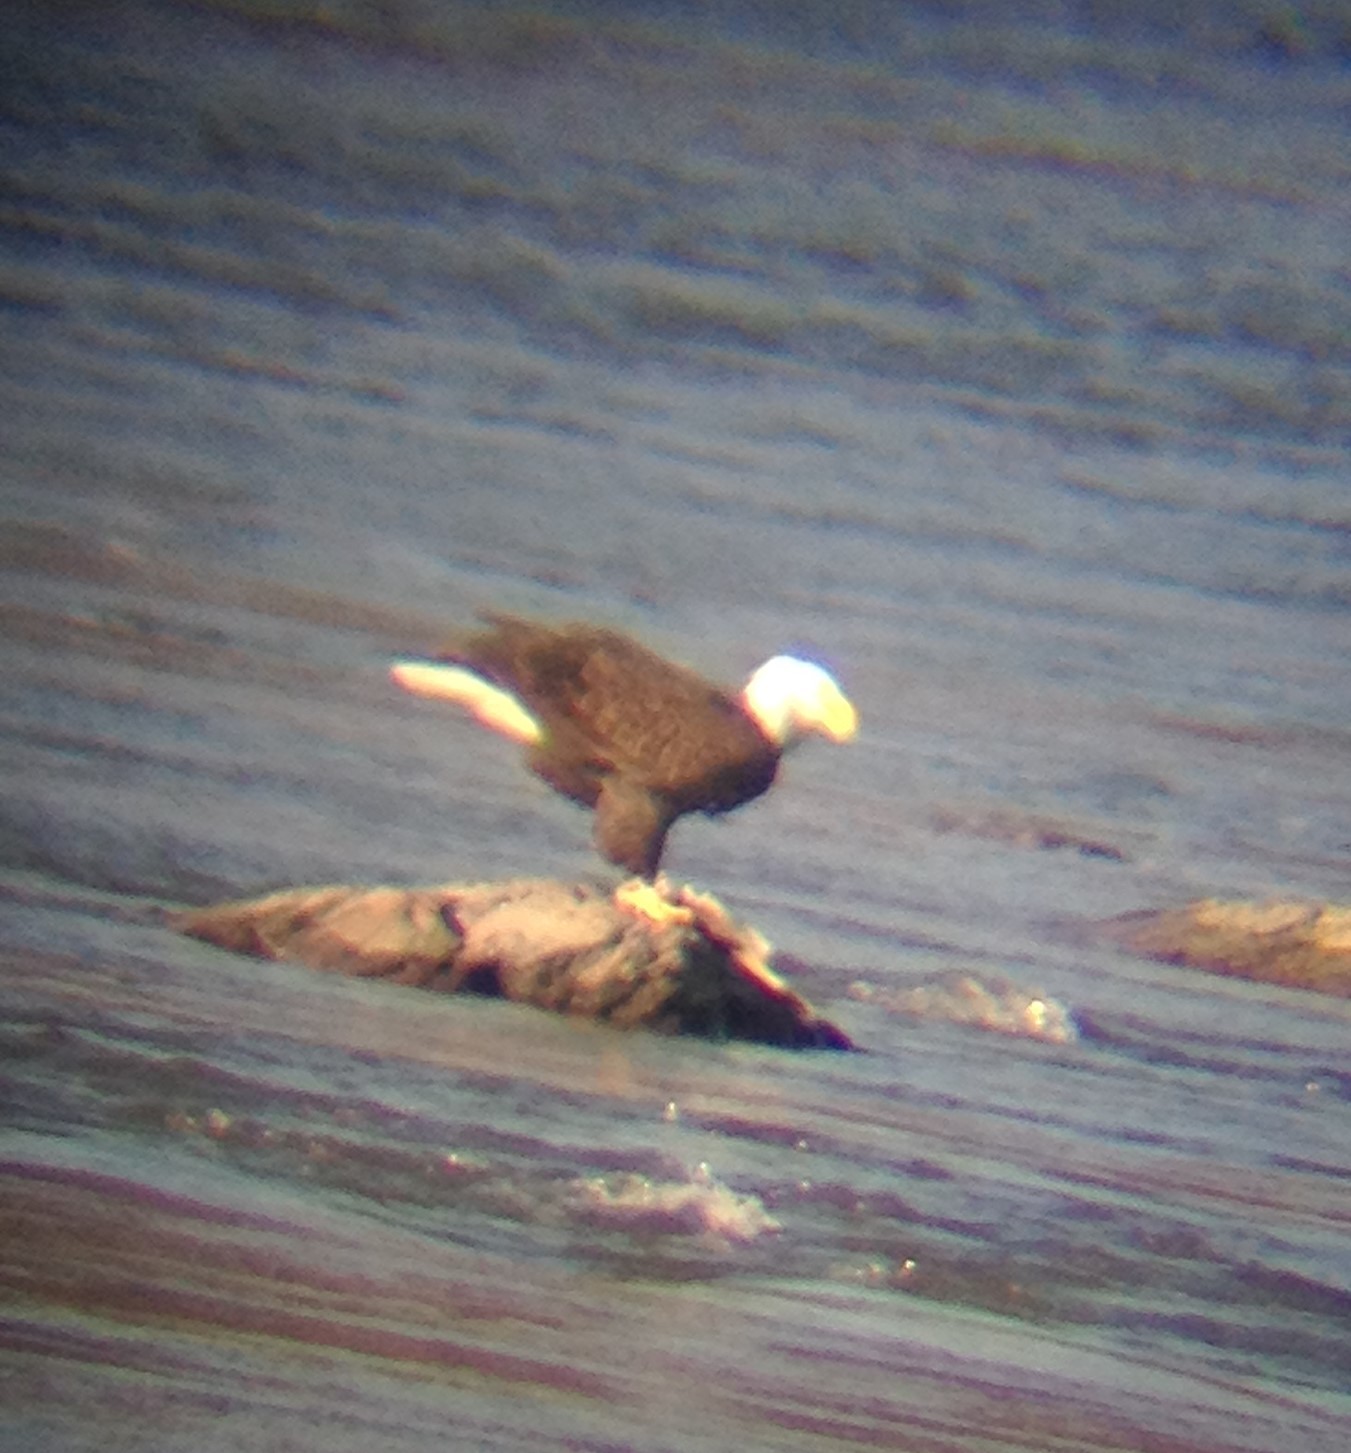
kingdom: Animalia
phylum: Chordata
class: Aves
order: Accipitriformes
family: Accipitridae
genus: Haliaeetus
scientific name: Haliaeetus leucocephalus
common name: Bald eagle
